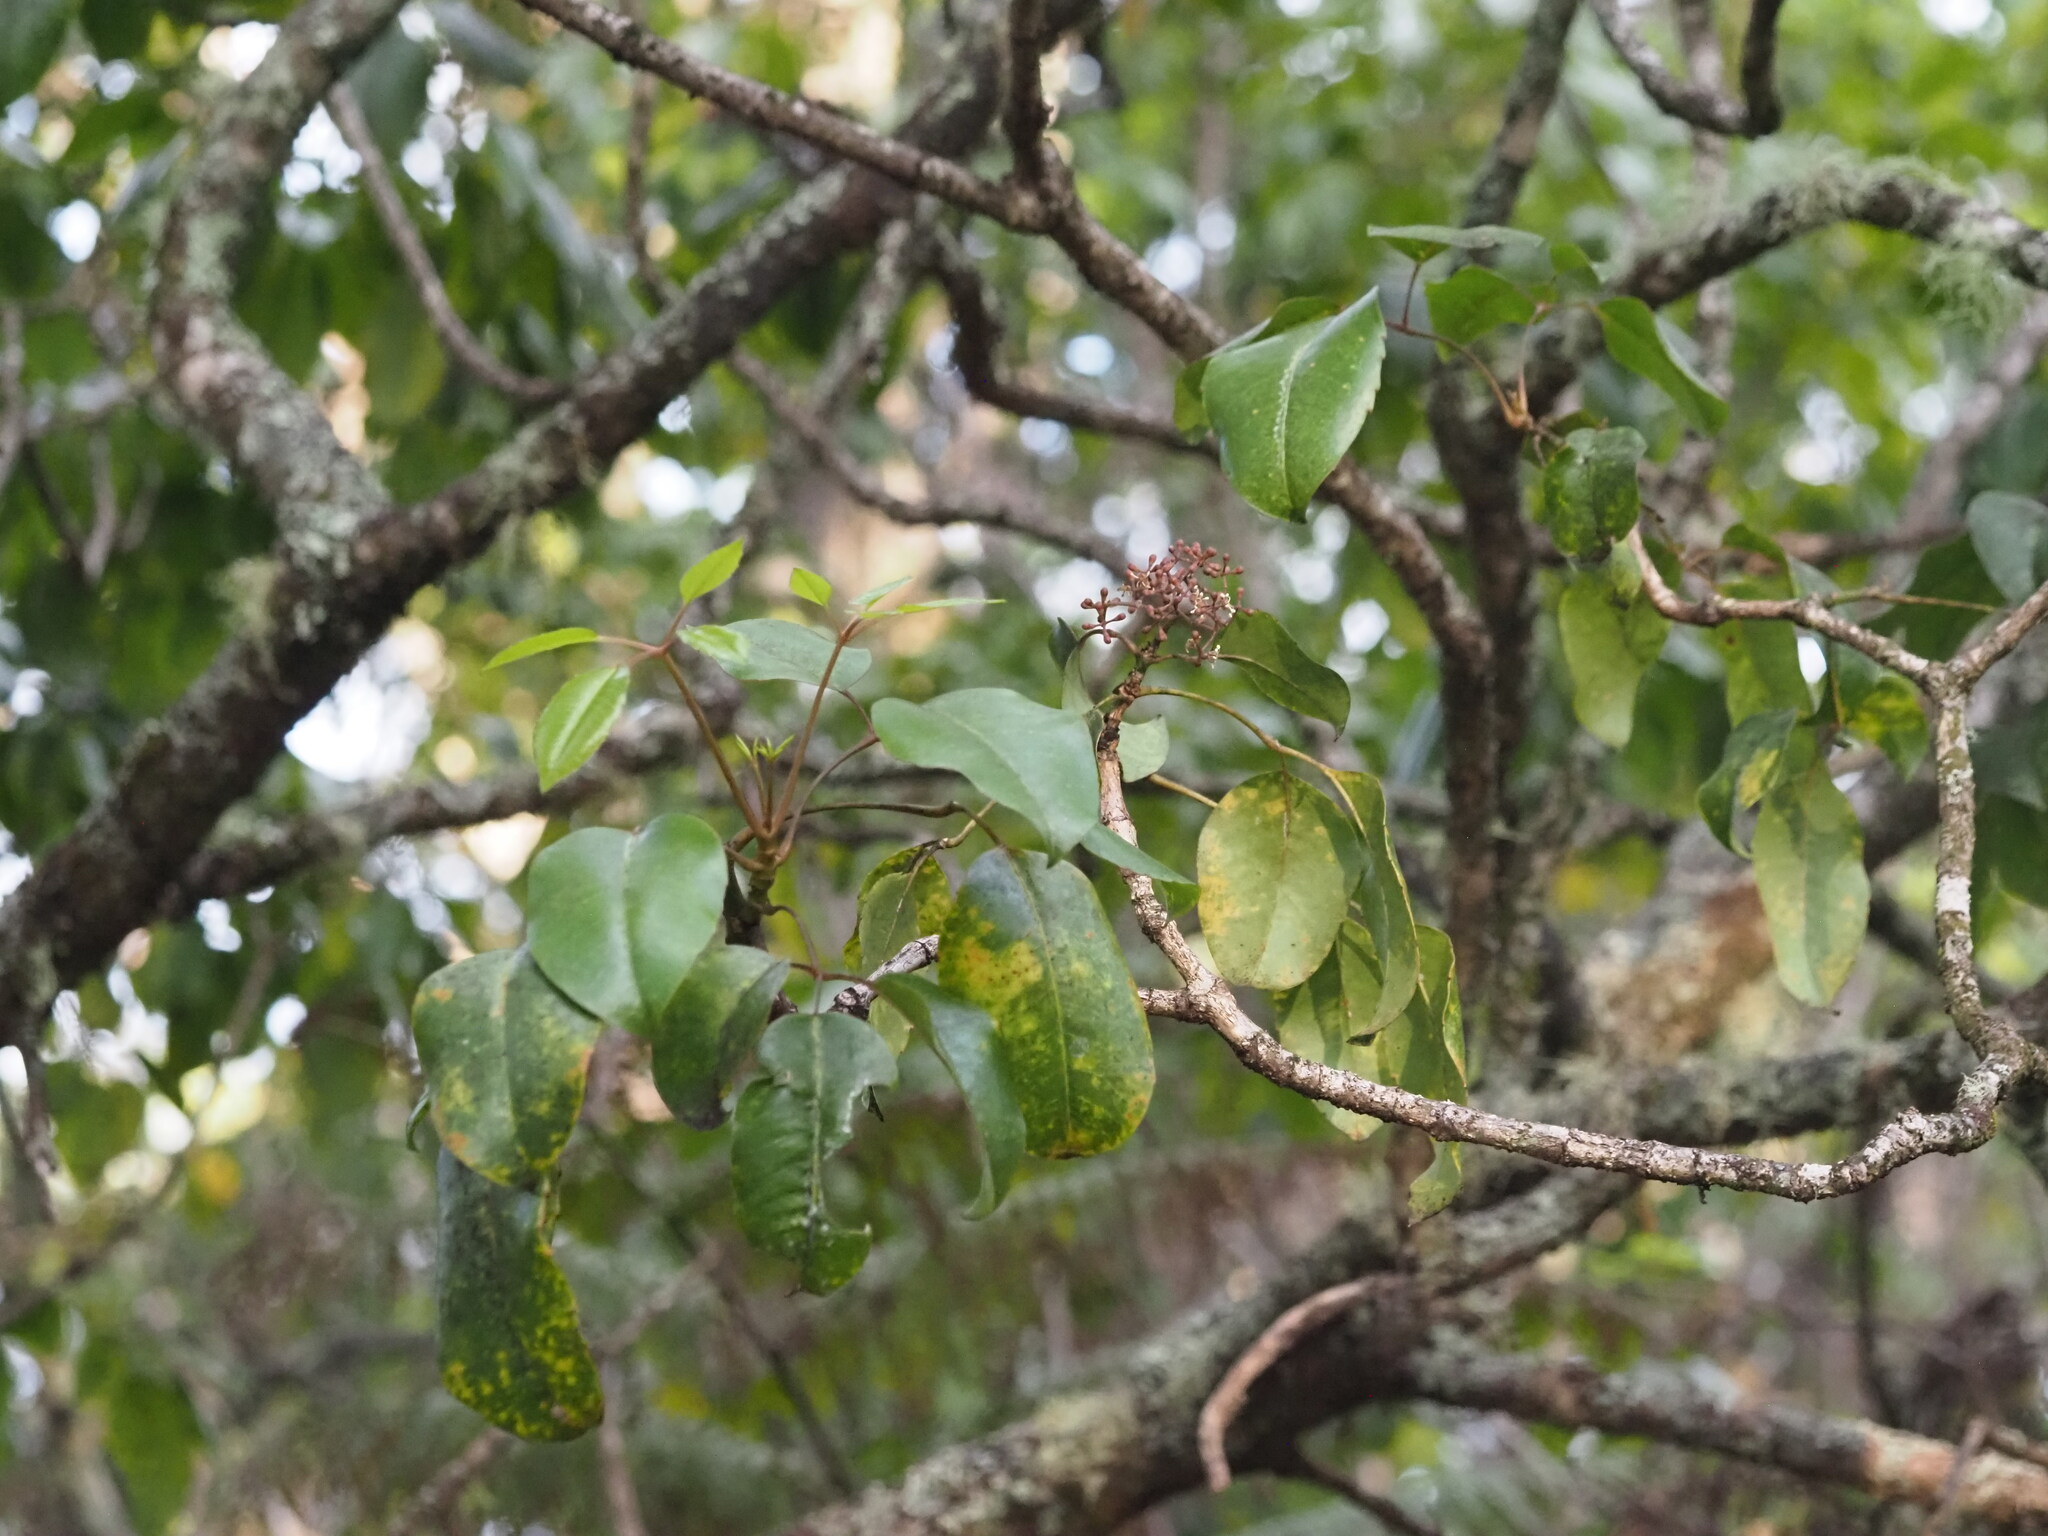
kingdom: Plantae
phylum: Tracheophyta
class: Magnoliopsida
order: Apiales
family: Araliaceae
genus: Cheirodendron
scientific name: Cheirodendron trigynum
